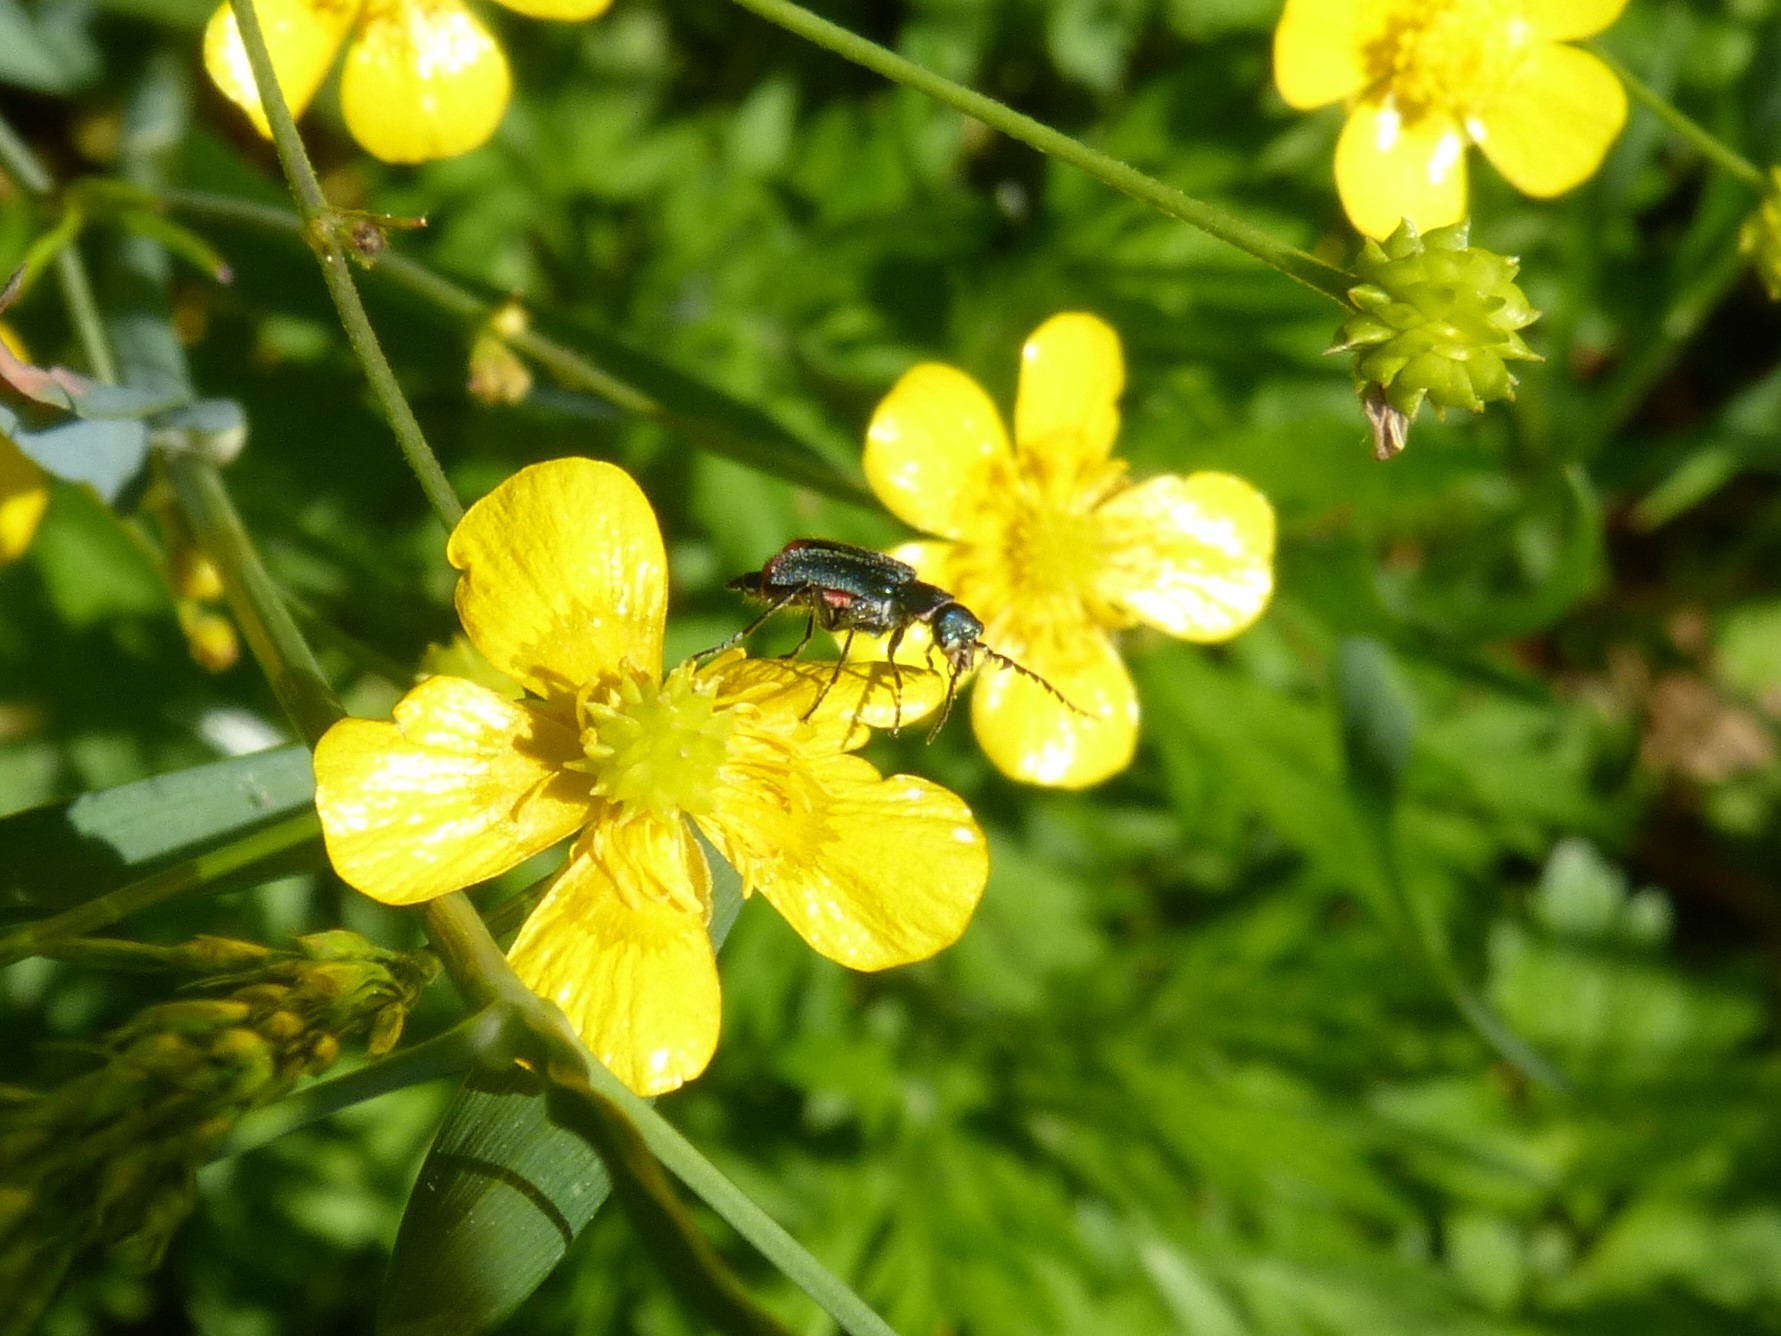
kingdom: Animalia
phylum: Arthropoda
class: Insecta
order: Coleoptera
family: Melyridae
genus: Malachius
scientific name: Malachius australis
